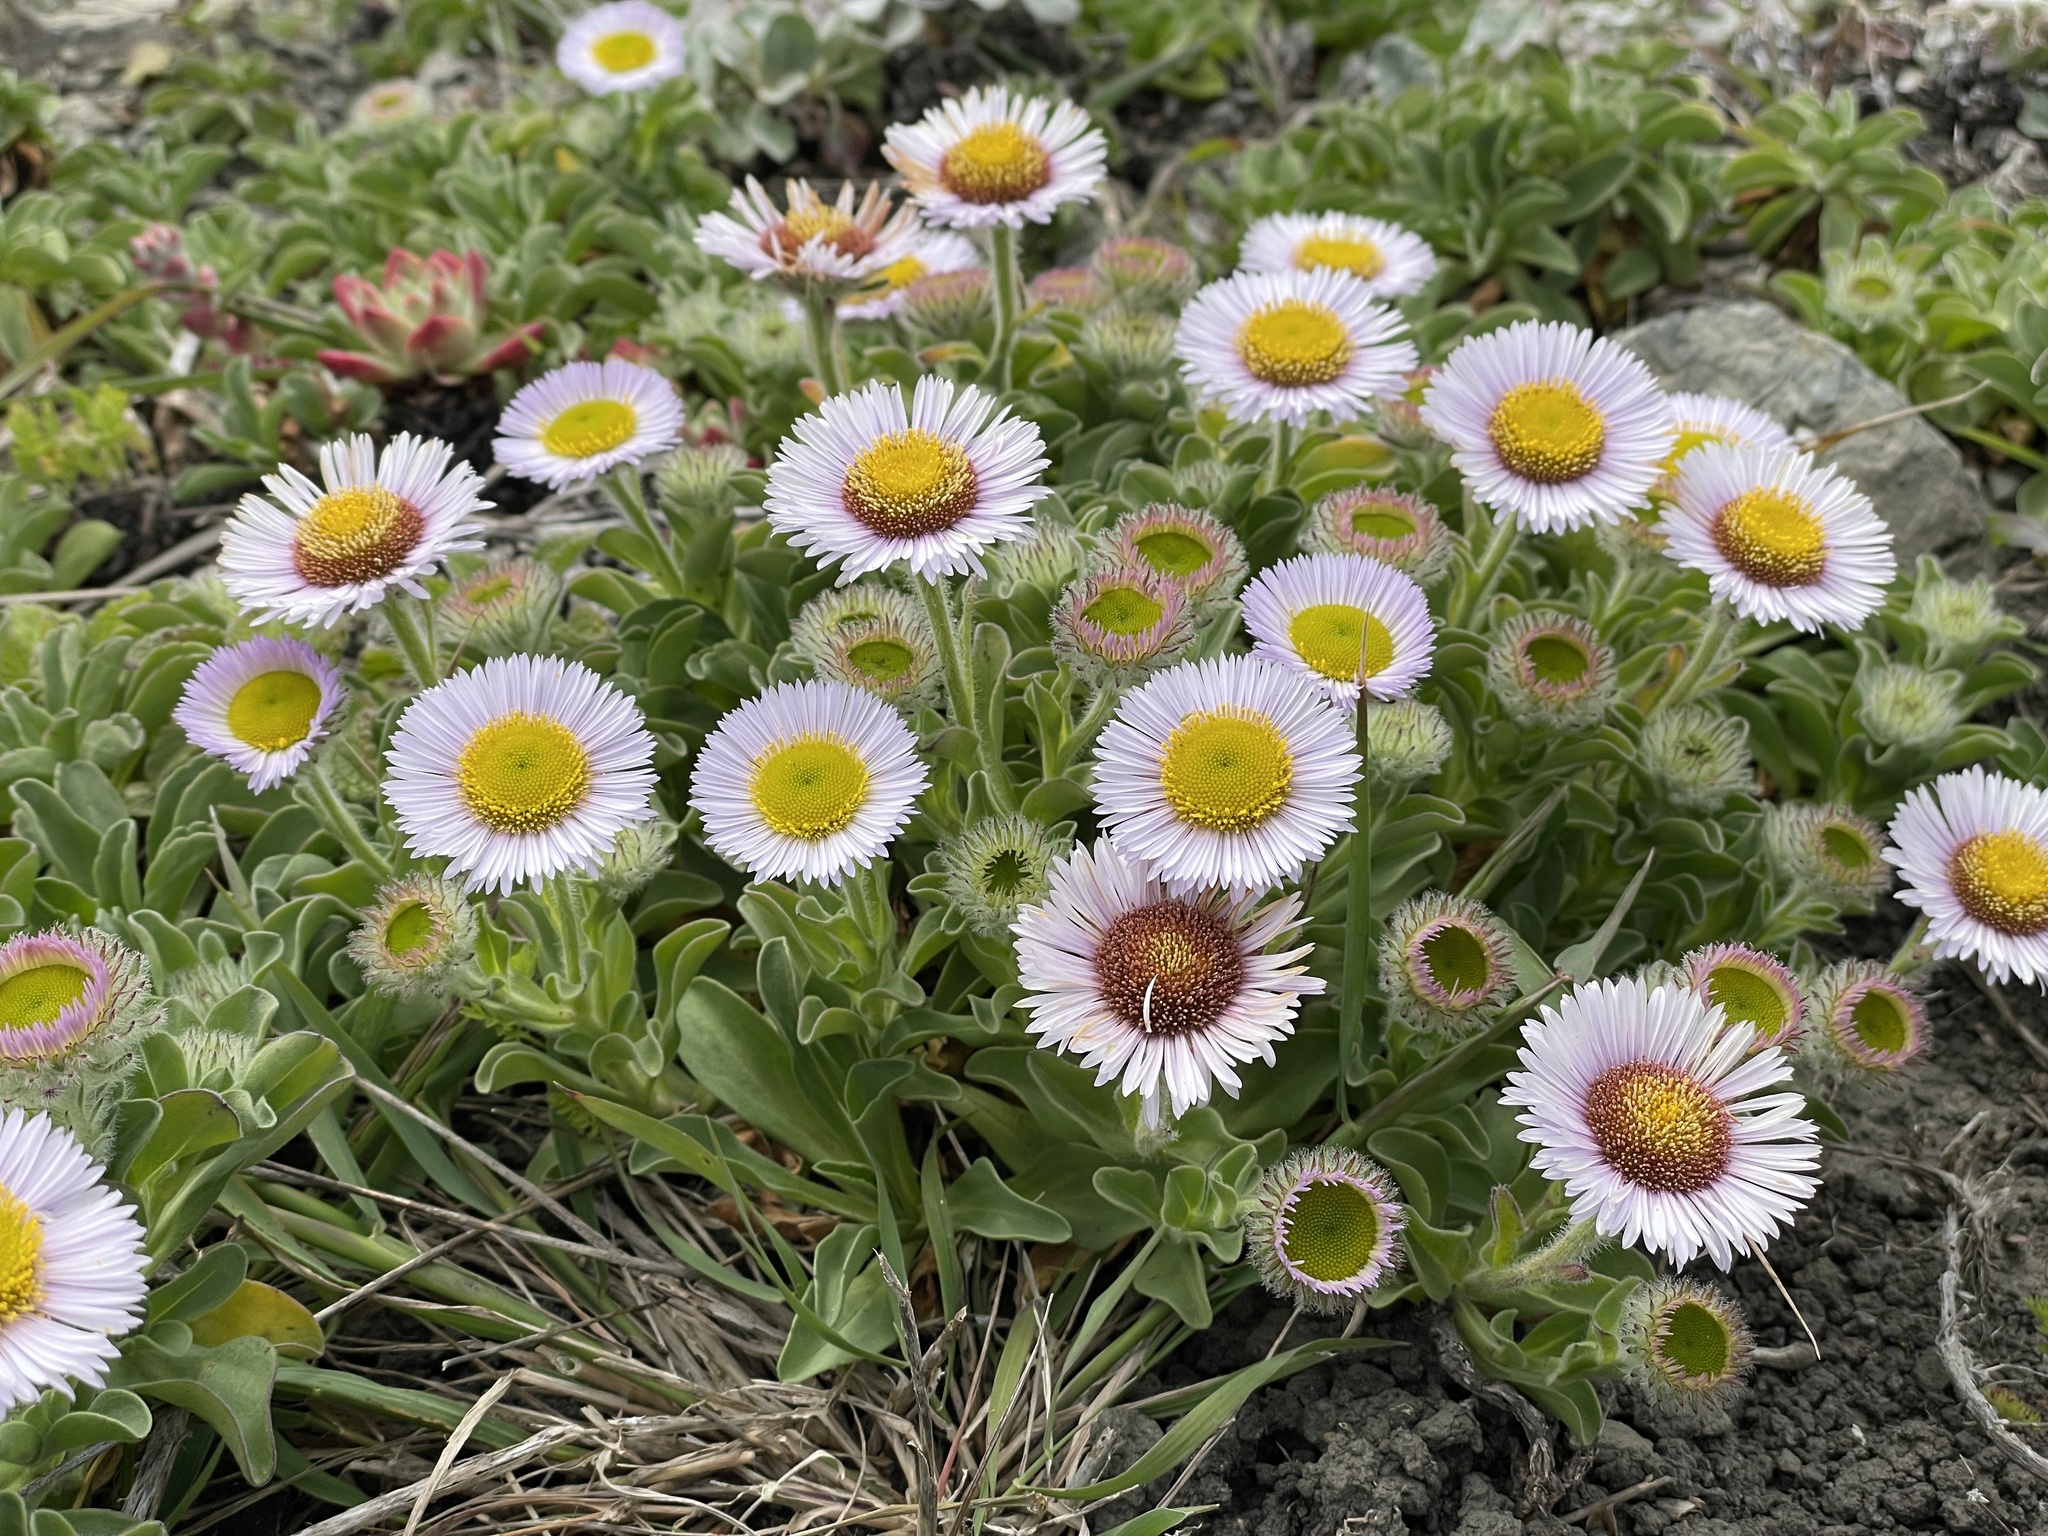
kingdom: Plantae
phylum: Tracheophyta
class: Magnoliopsida
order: Asterales
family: Asteraceae
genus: Erigeron
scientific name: Erigeron glaucus
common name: Seaside daisy
